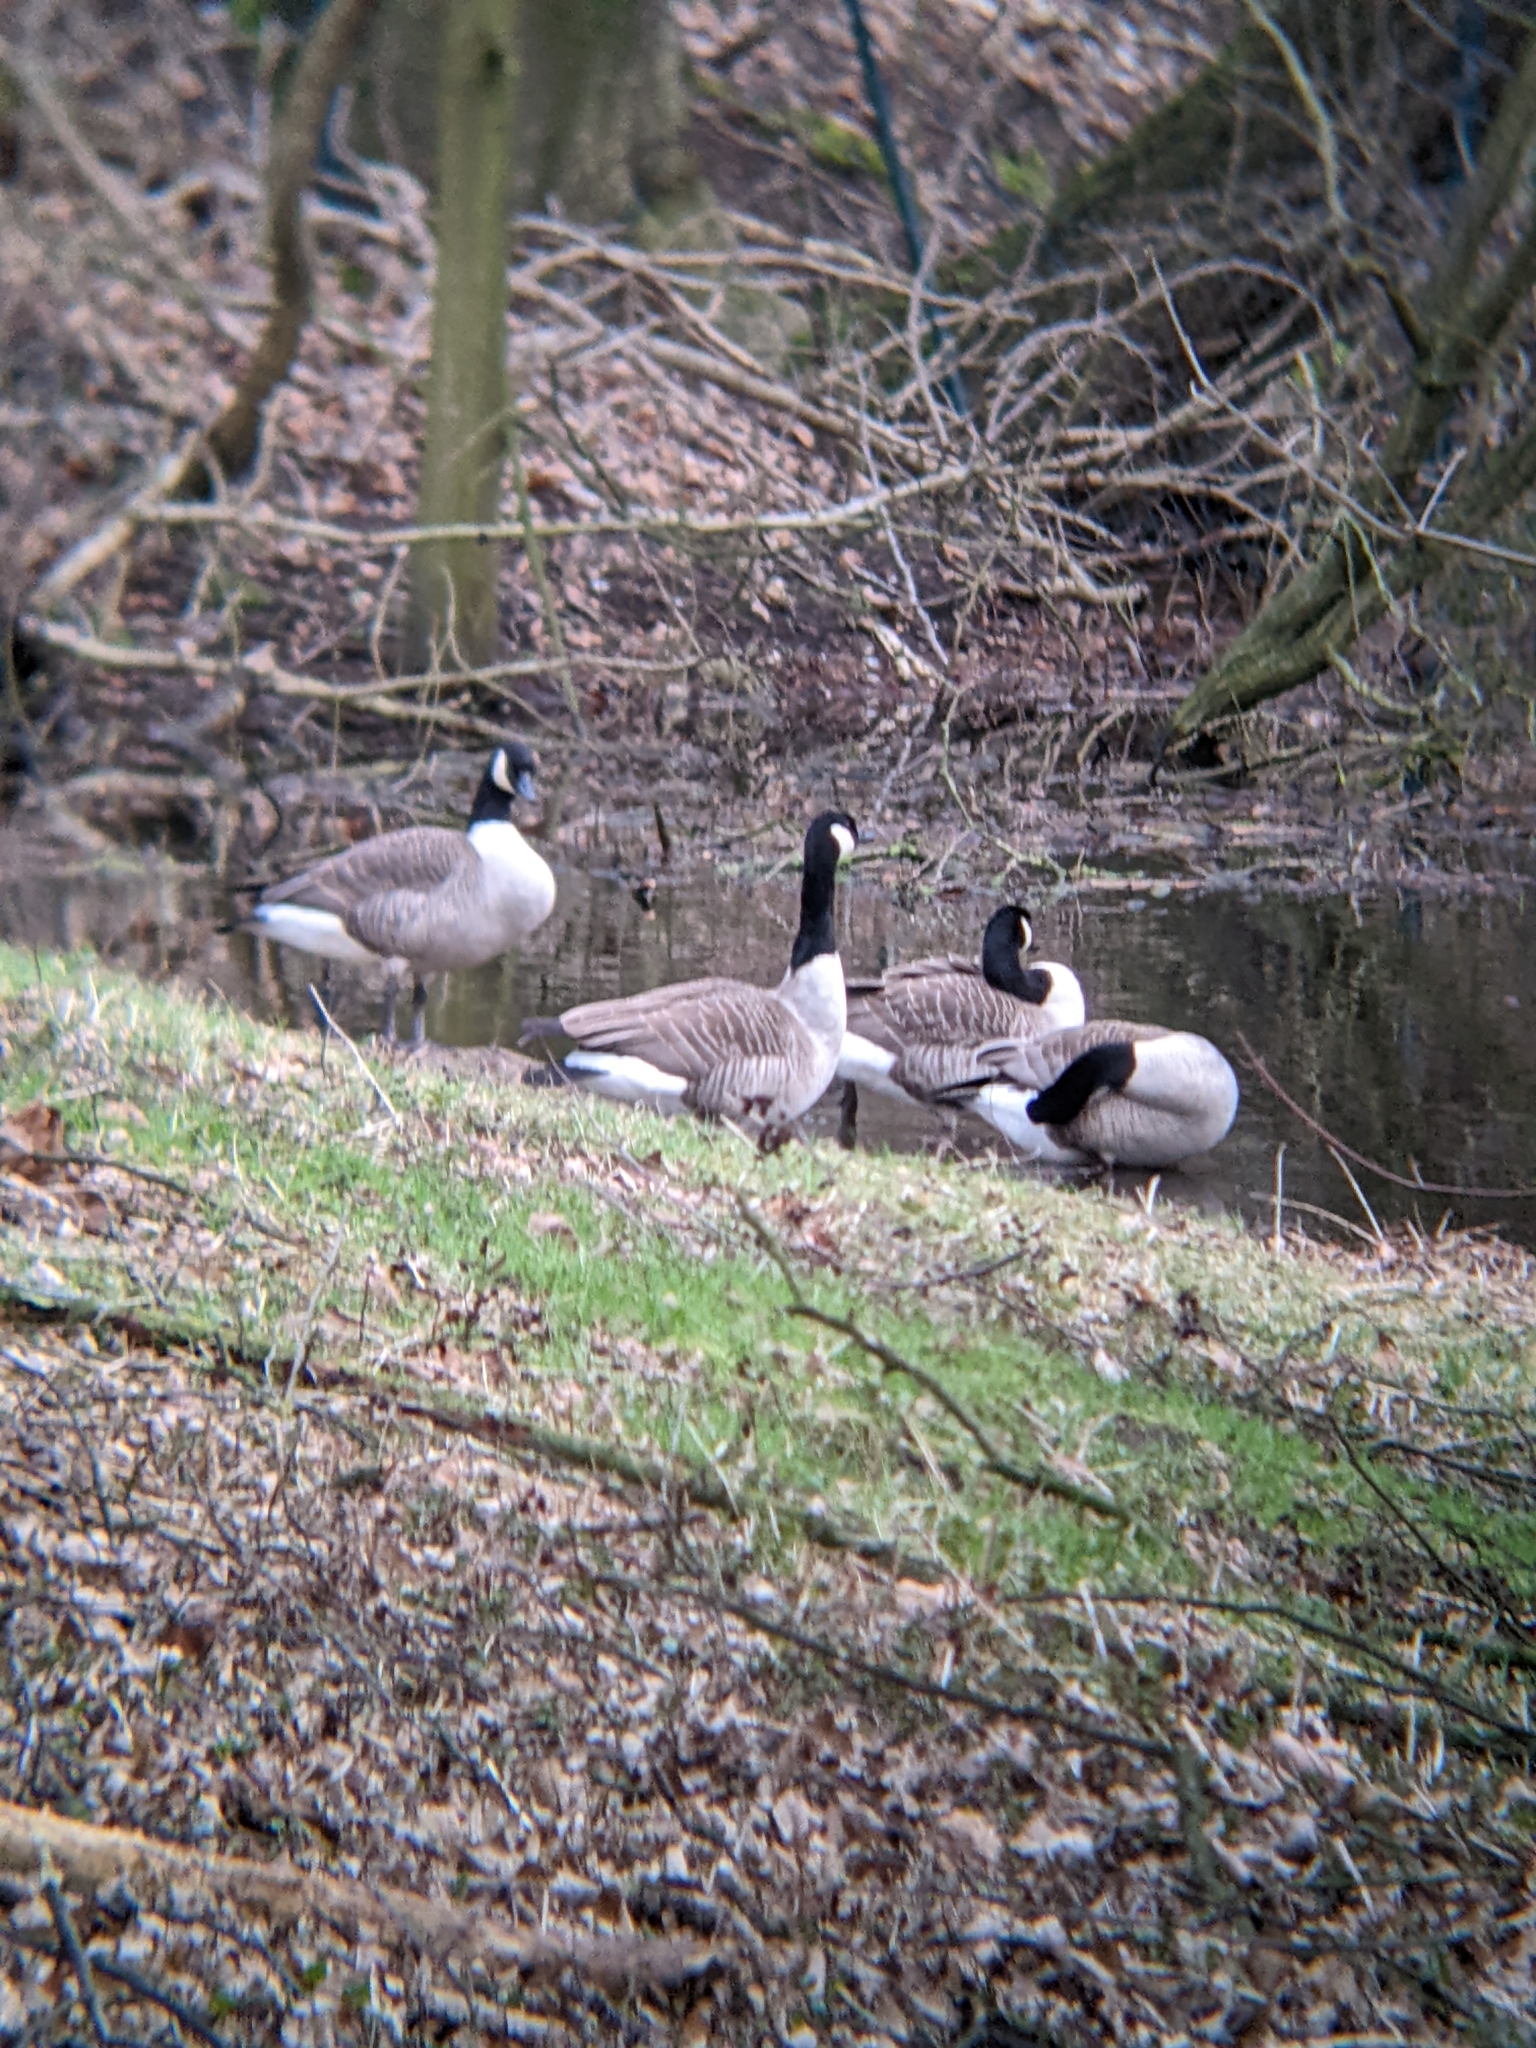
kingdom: Animalia
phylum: Chordata
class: Aves
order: Anseriformes
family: Anatidae
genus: Branta
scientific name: Branta canadensis
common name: Canada goose
